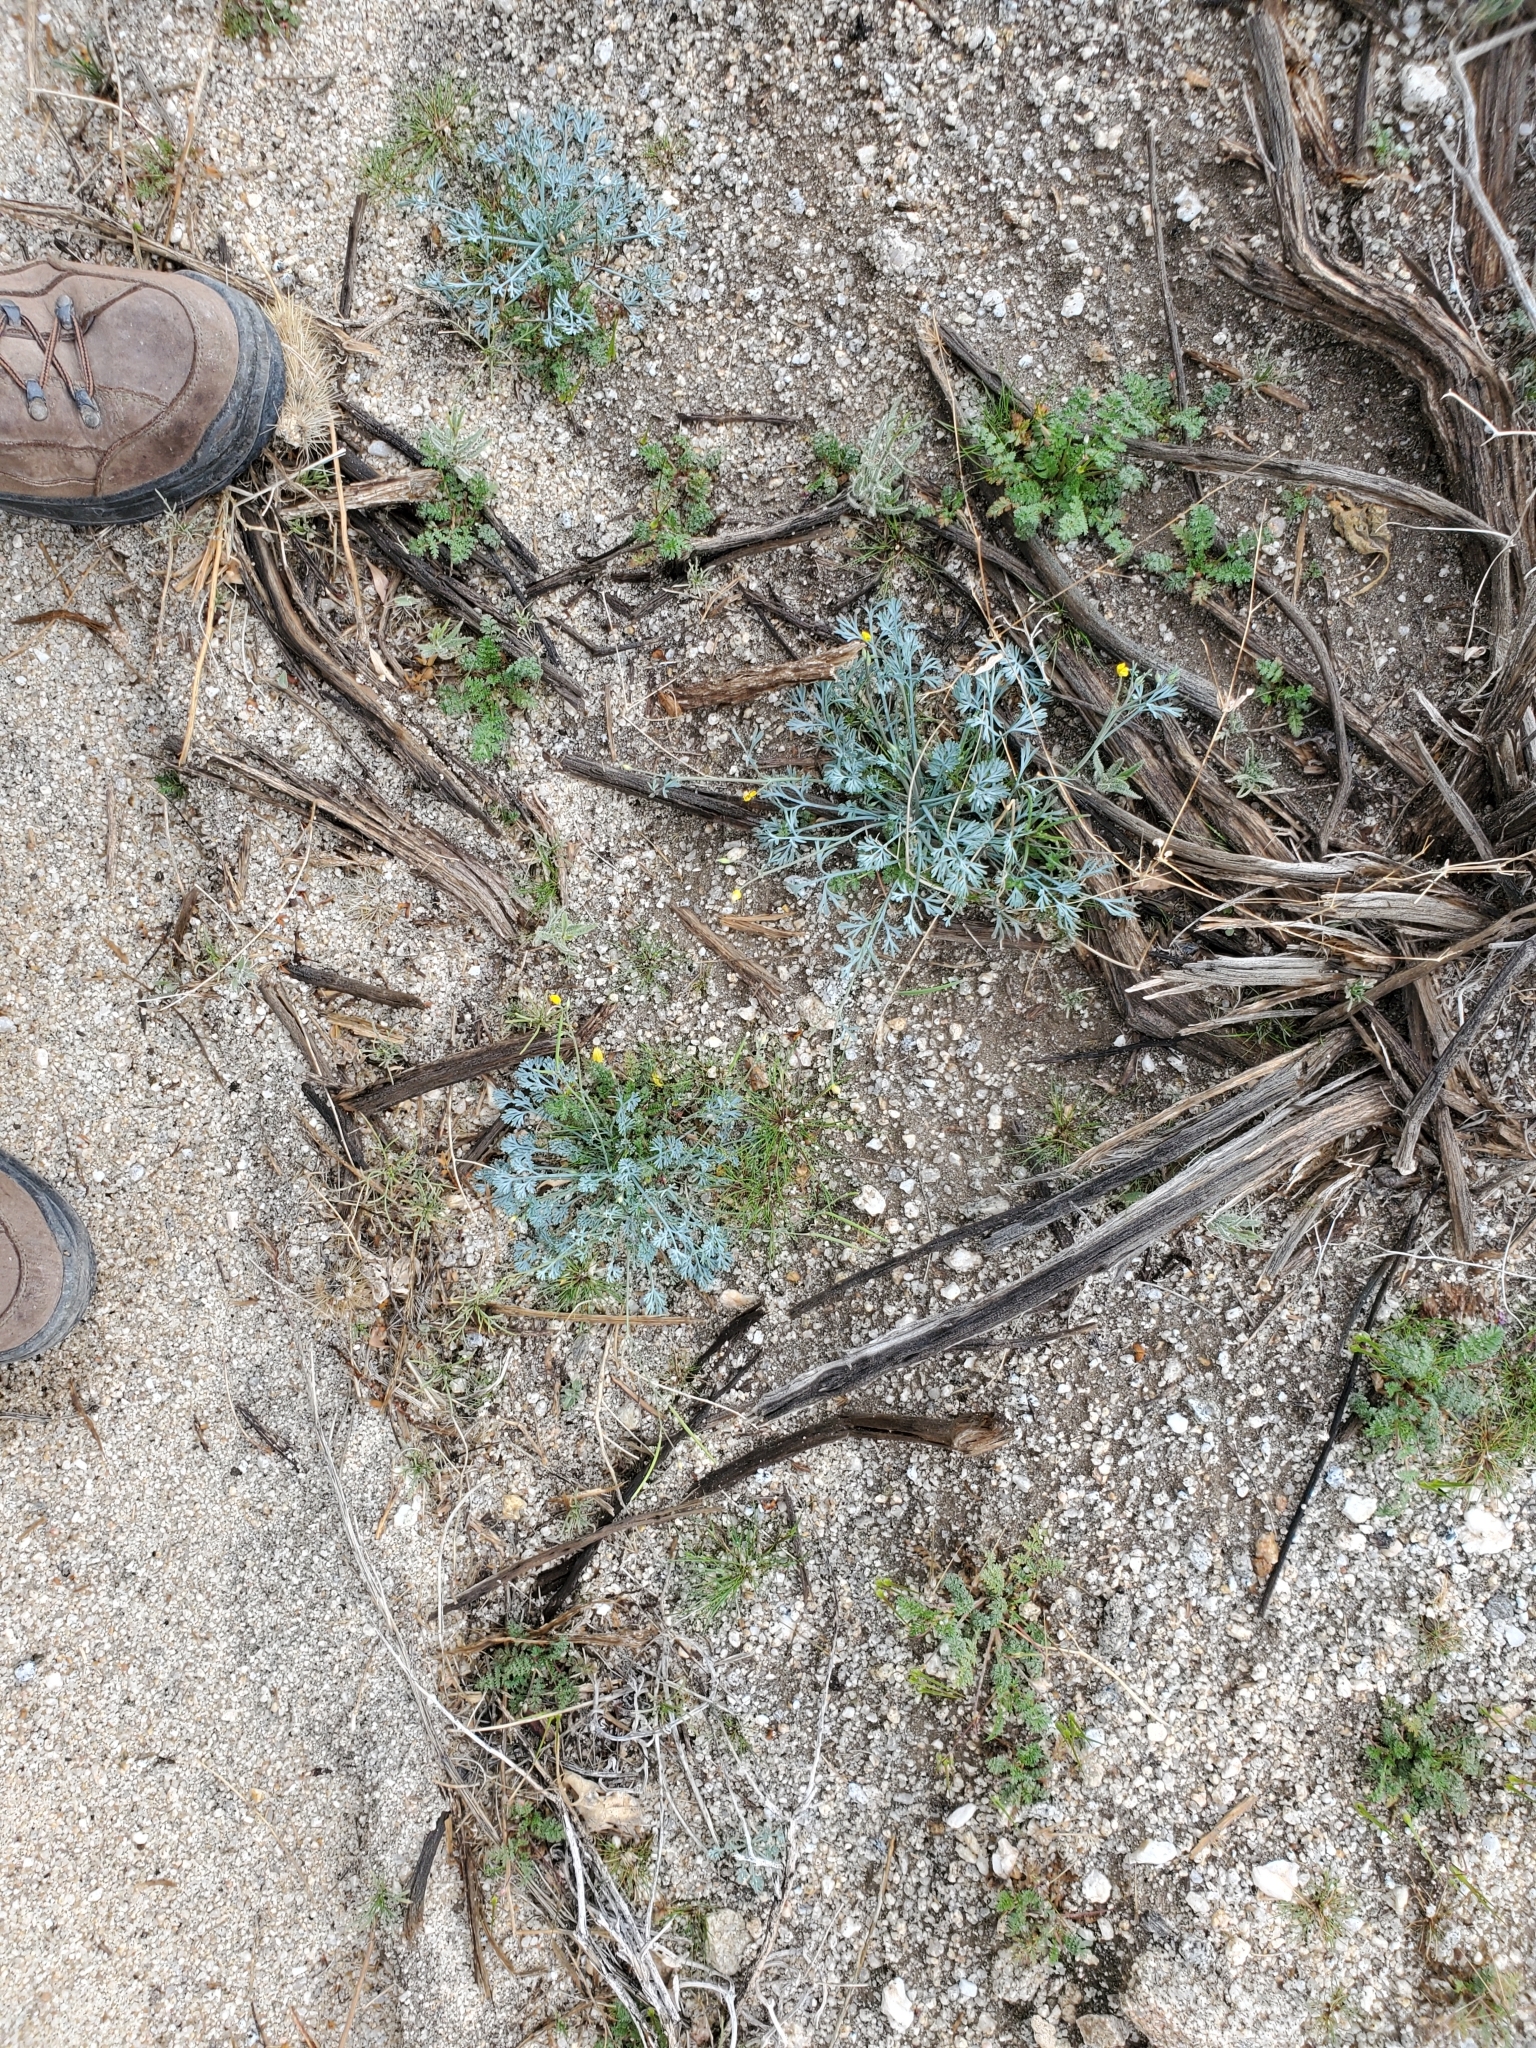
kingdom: Plantae
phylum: Tracheophyta
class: Magnoliopsida
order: Ranunculales
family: Papaveraceae
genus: Eschscholzia
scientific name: Eschscholzia minutiflora
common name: Small-flower california-poppy
